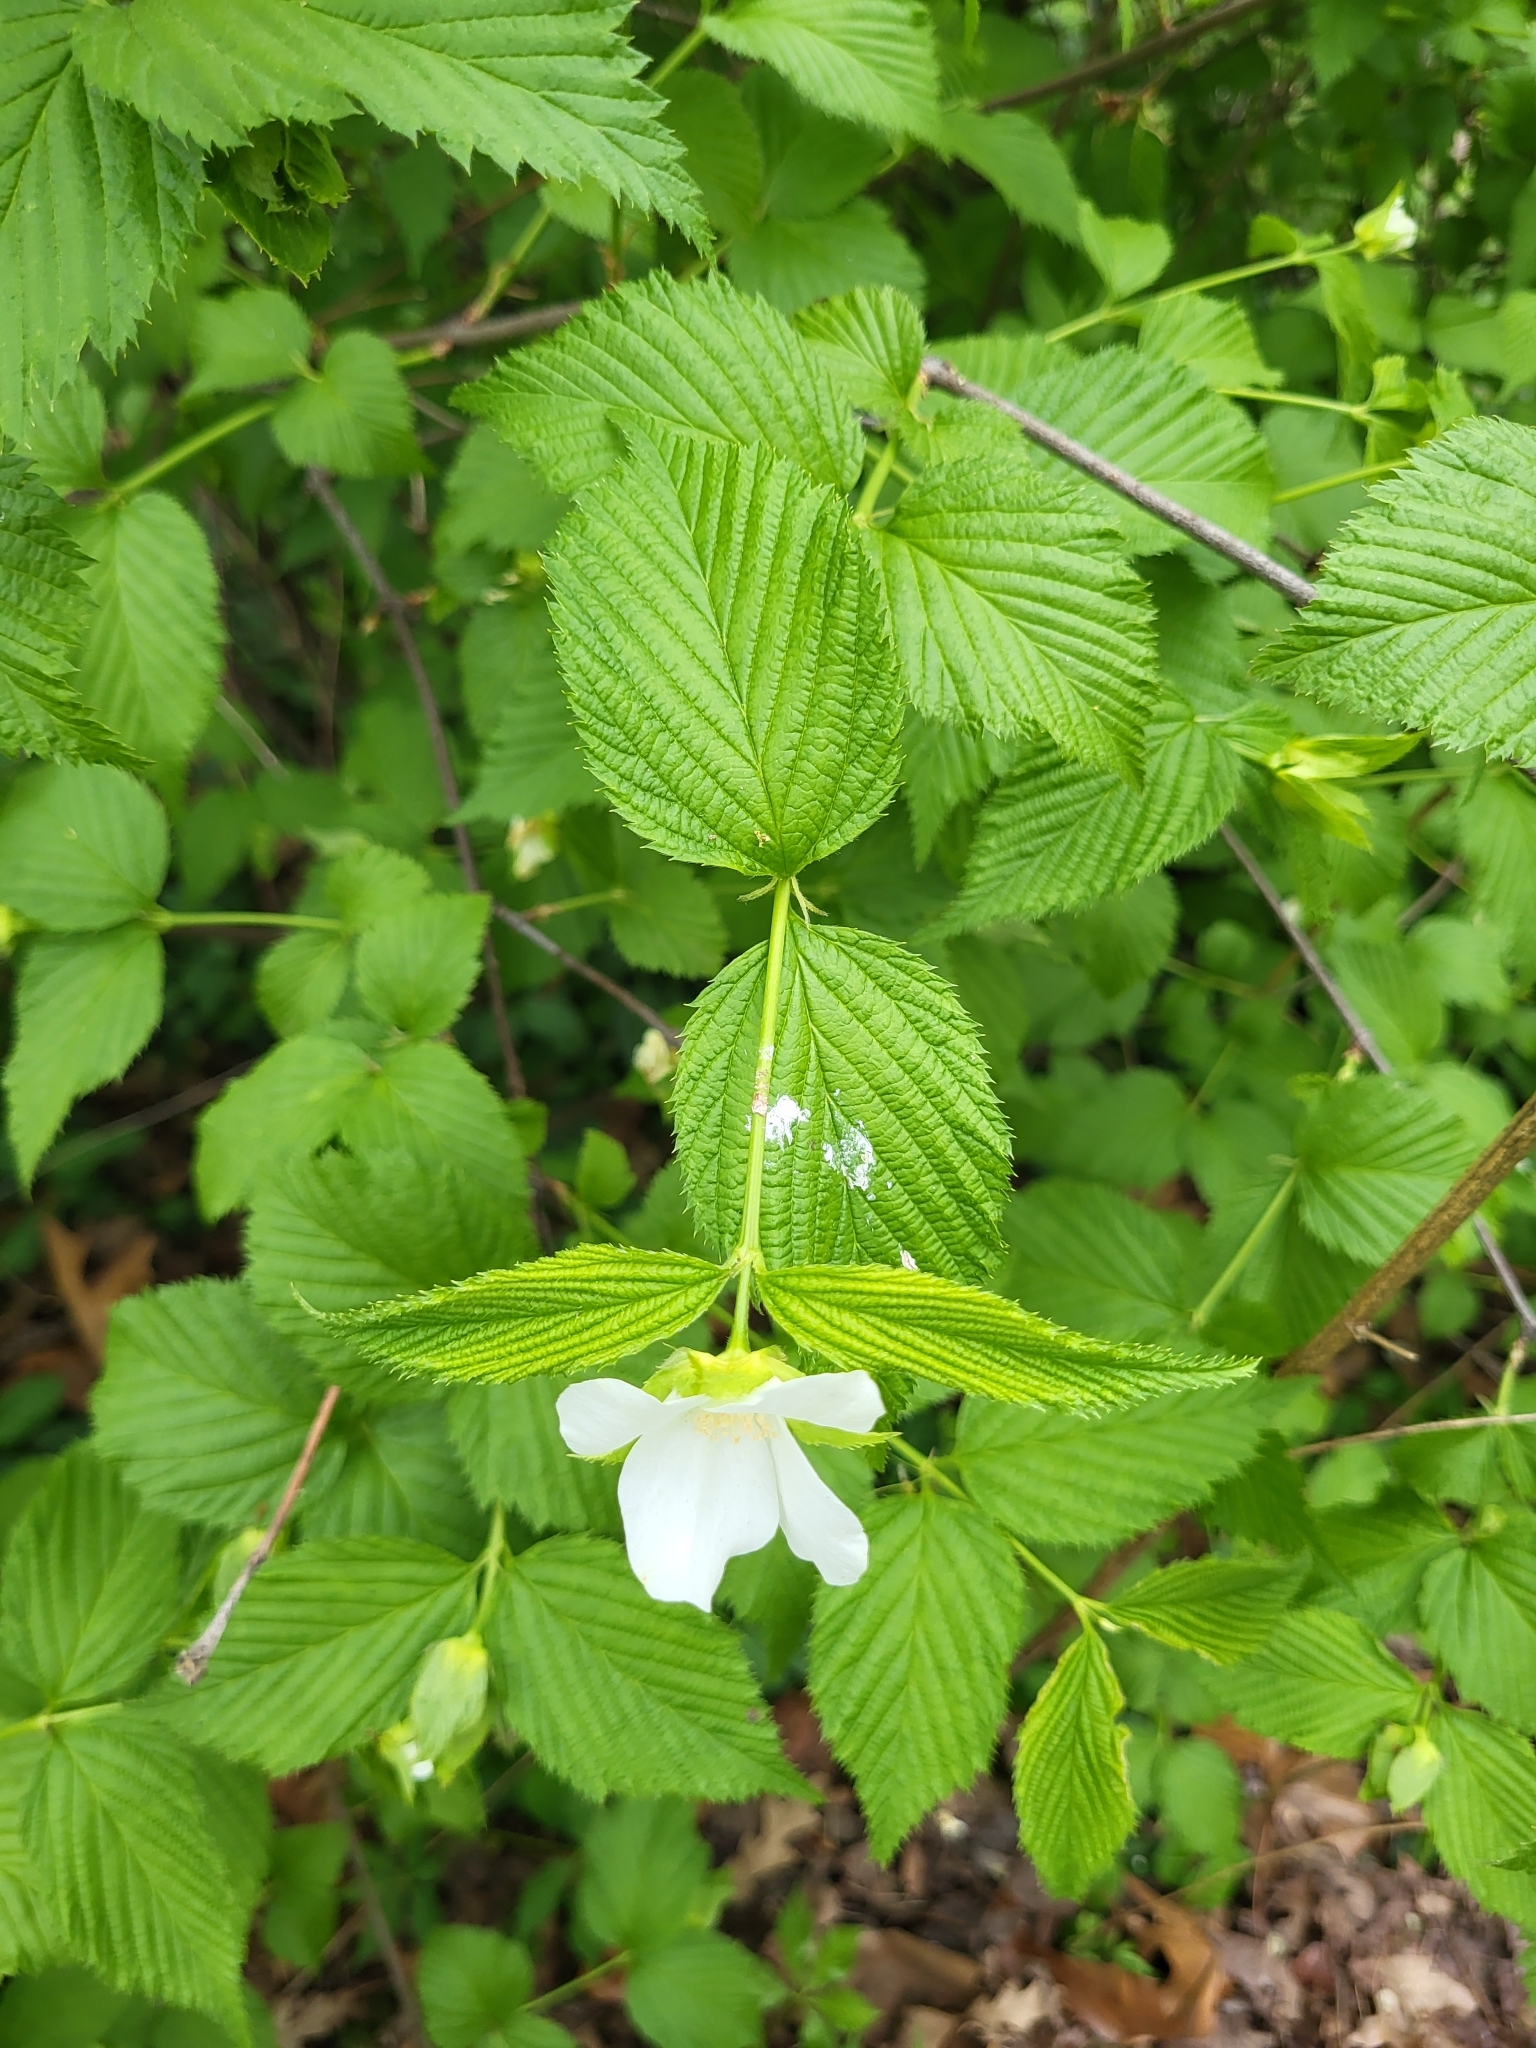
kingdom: Plantae
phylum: Tracheophyta
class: Magnoliopsida
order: Rosales
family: Rosaceae
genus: Rhodotypos
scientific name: Rhodotypos scandens
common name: Jetbead
